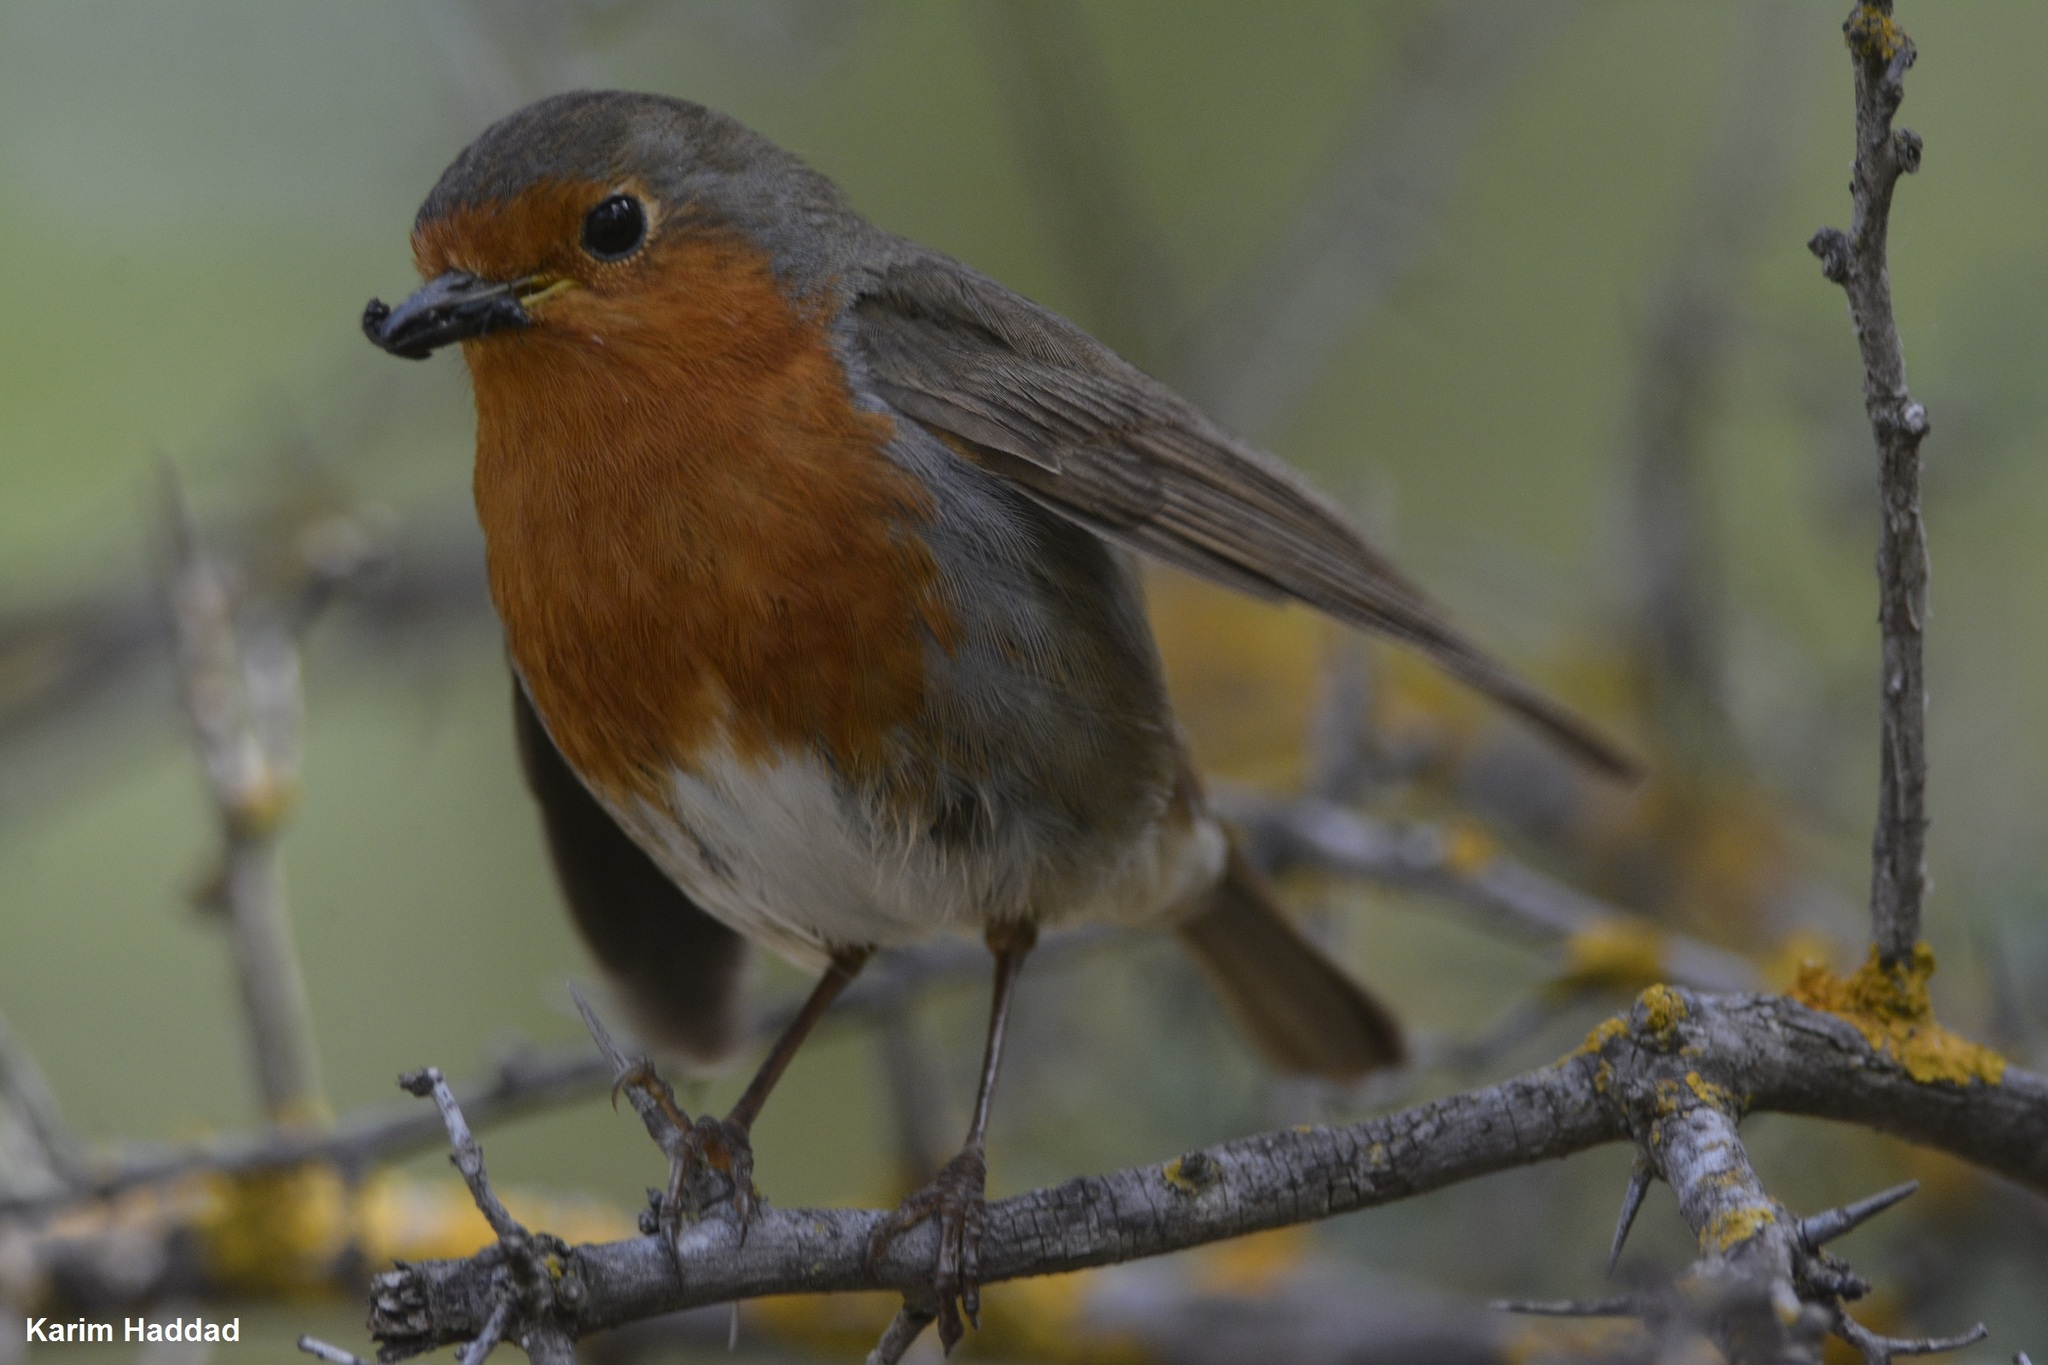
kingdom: Animalia
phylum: Chordata
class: Aves
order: Passeriformes
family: Muscicapidae
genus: Erithacus
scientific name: Erithacus rubecula
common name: European robin
